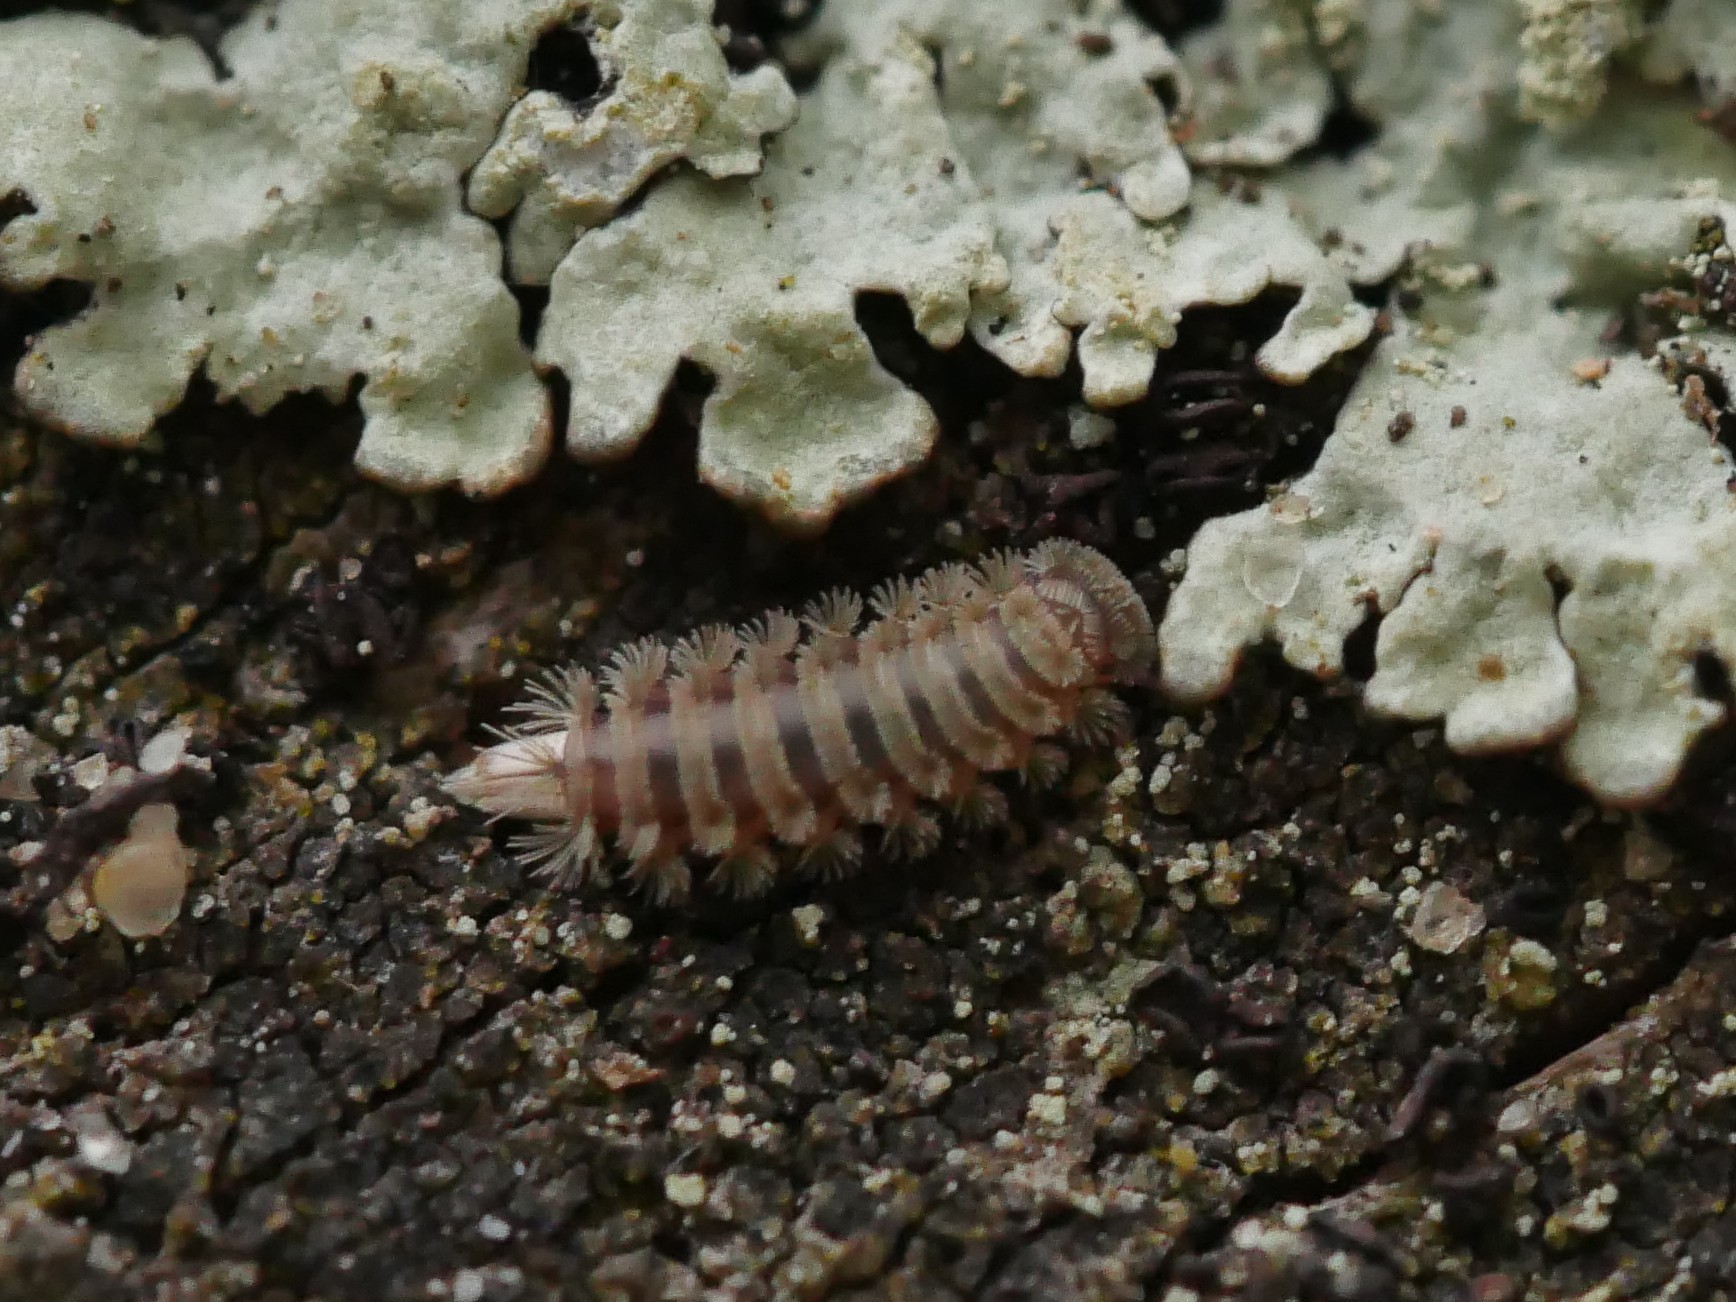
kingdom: Animalia
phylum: Arthropoda
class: Diplopoda
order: Polyxenida
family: Polyxenidae
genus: Polyxenus
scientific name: Polyxenus lagurus
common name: Bristly millipede
